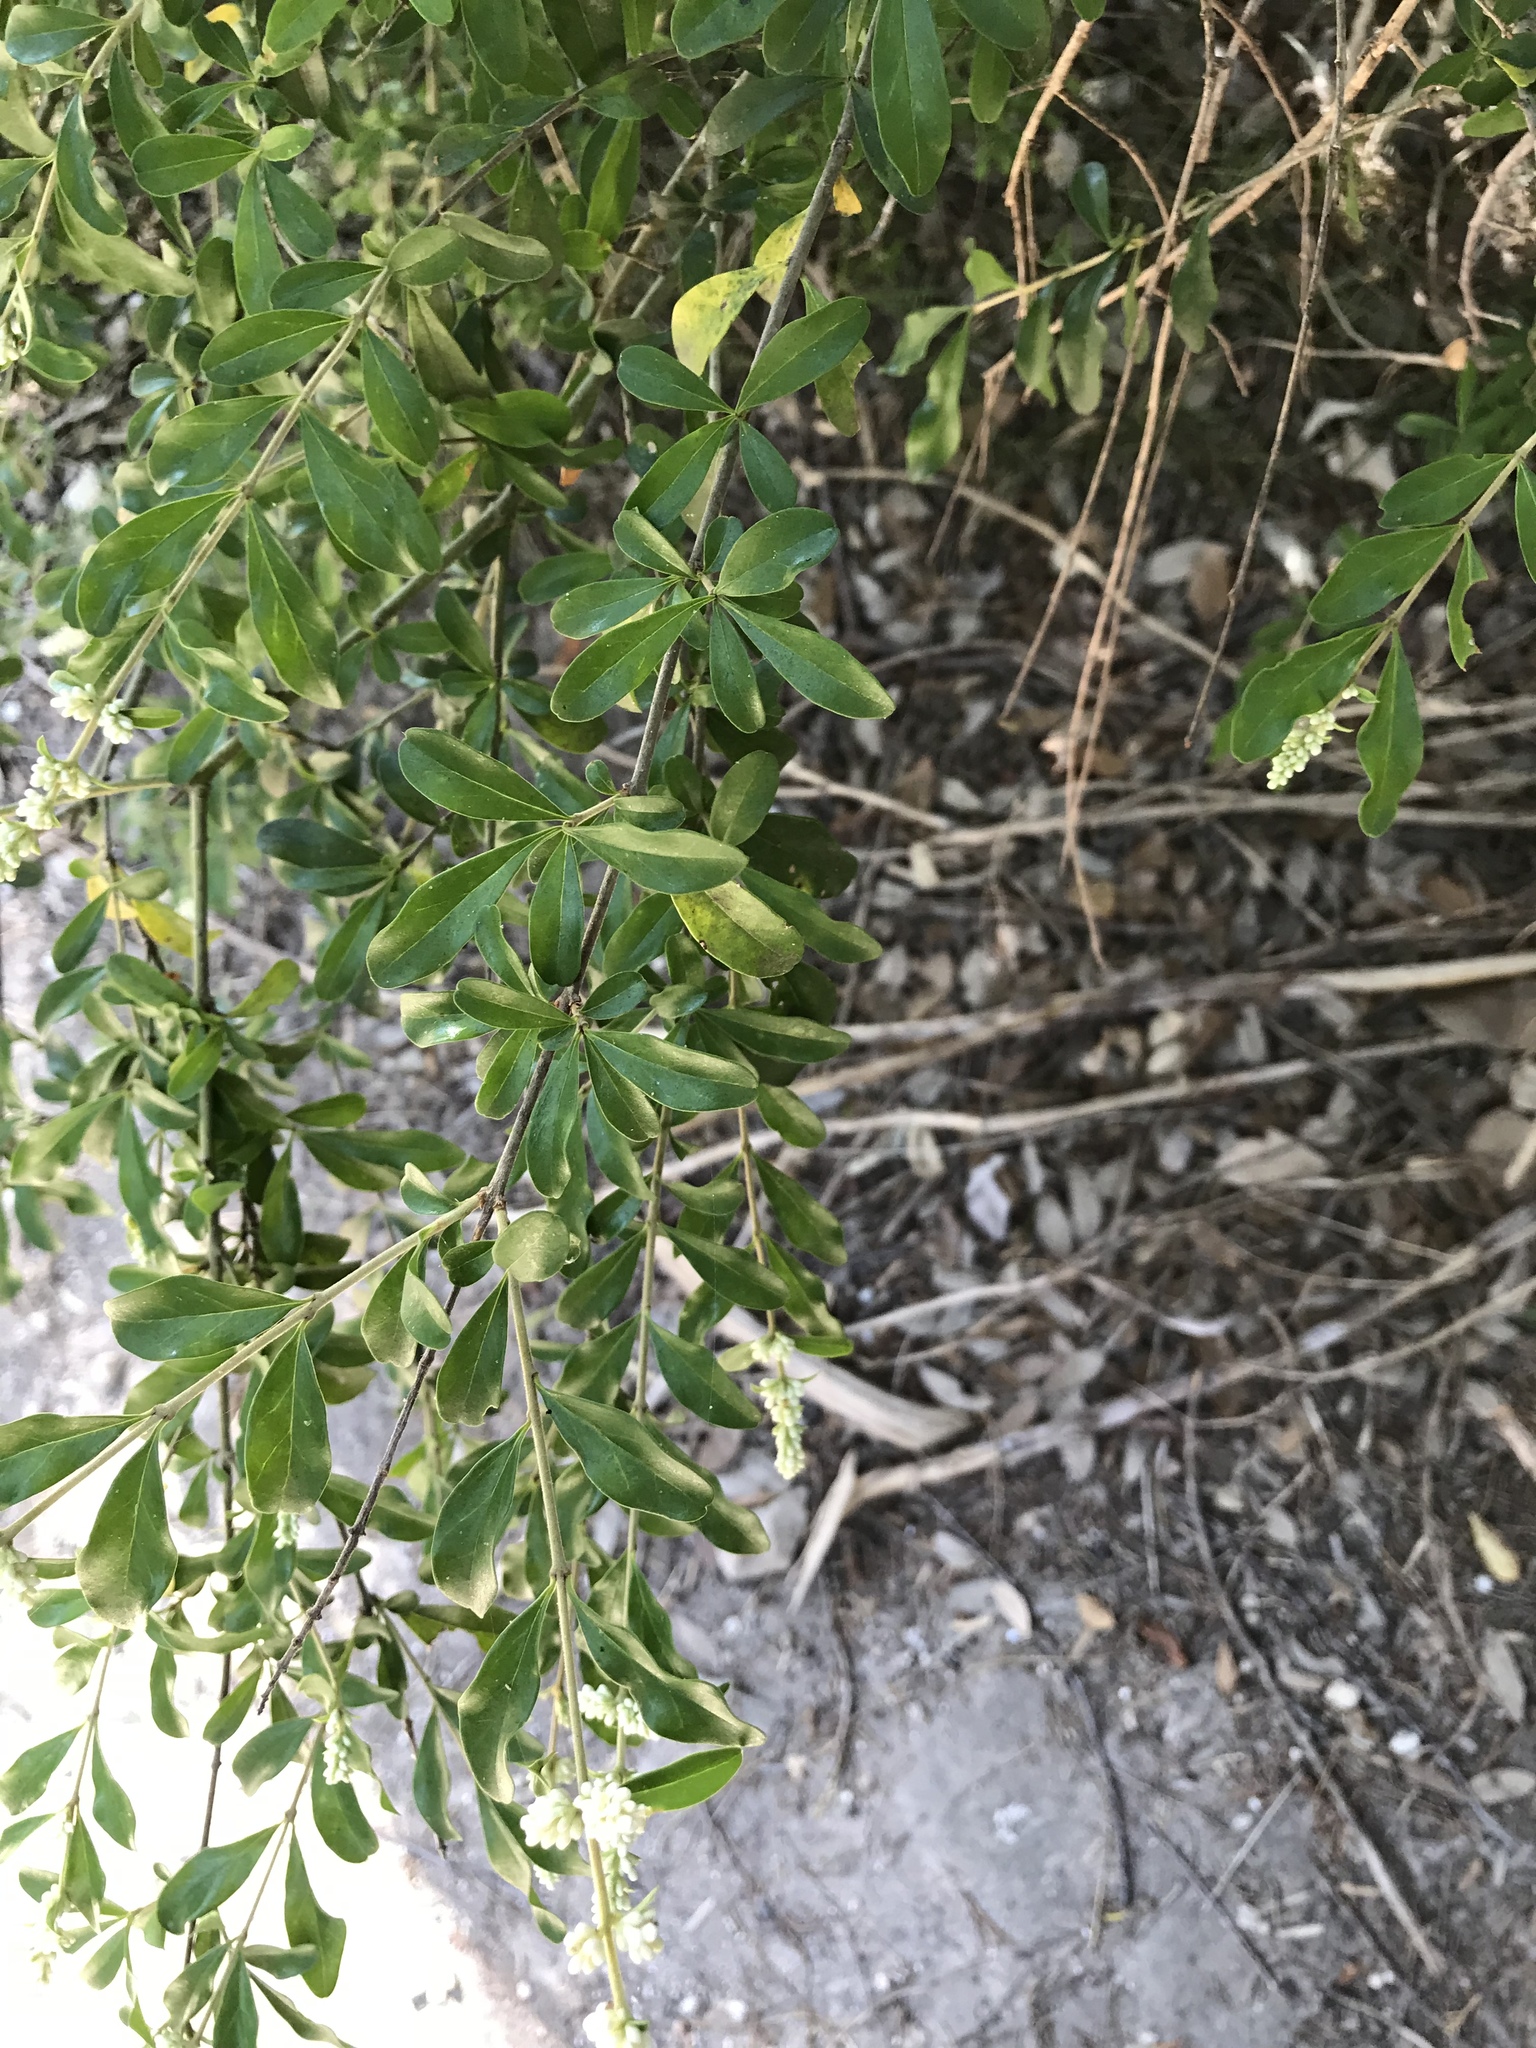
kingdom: Plantae
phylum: Tracheophyta
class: Magnoliopsida
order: Lamiales
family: Oleaceae
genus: Ligustrum
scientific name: Ligustrum quihoui
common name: Waxyleaf privet
